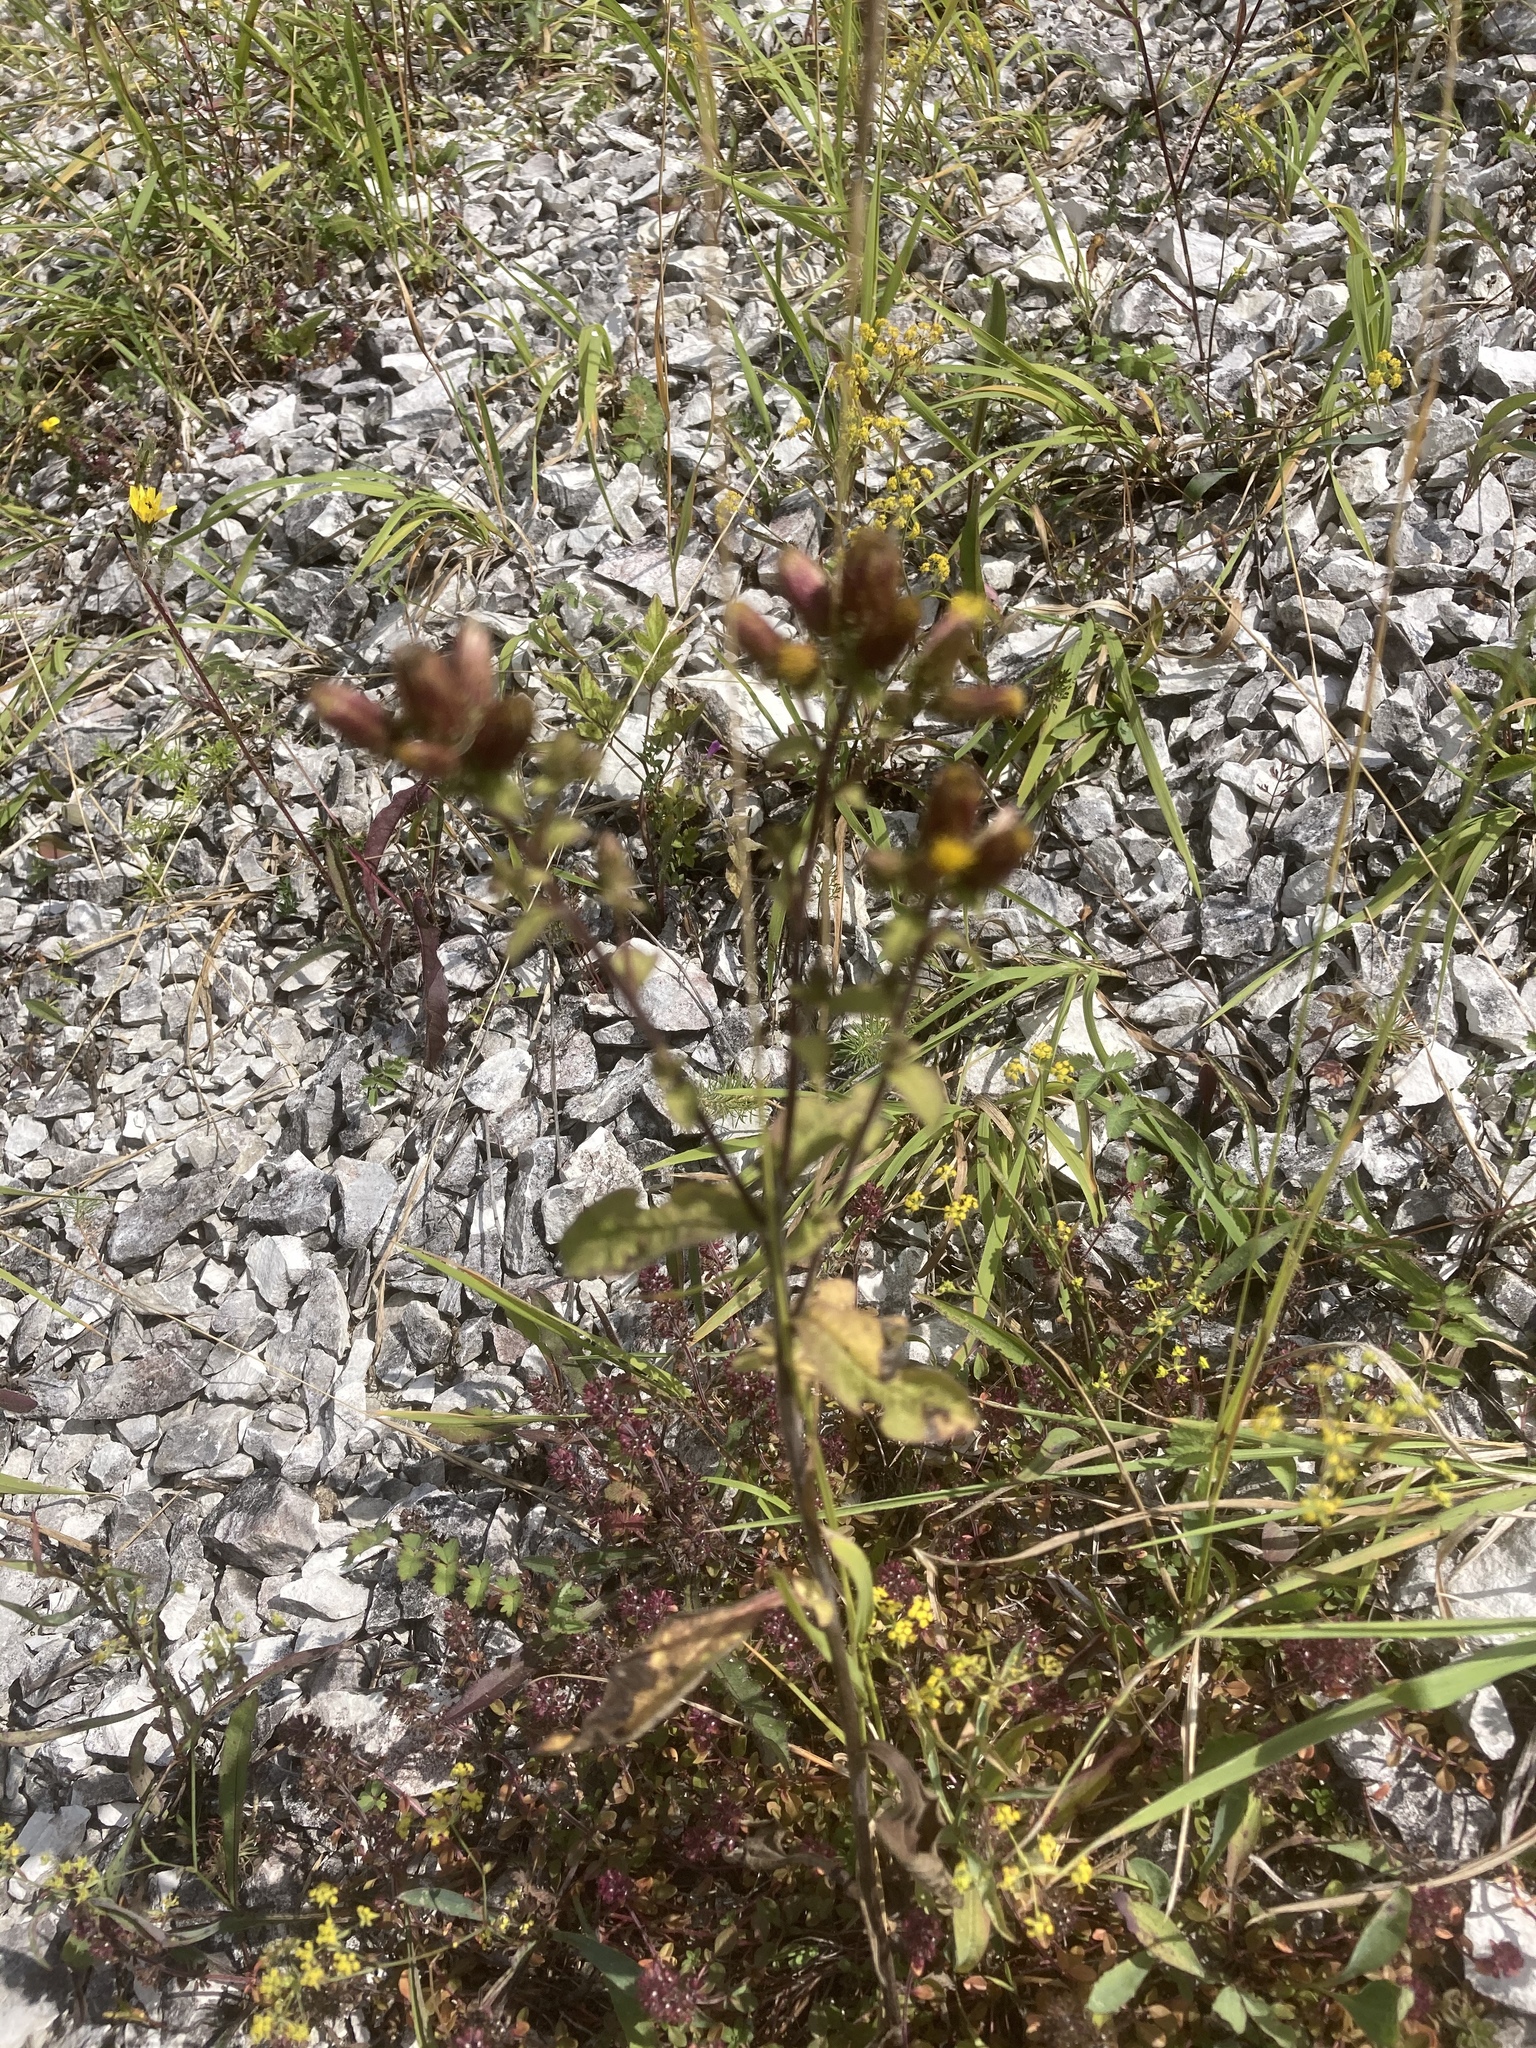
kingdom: Plantae
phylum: Tracheophyta
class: Magnoliopsida
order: Asterales
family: Asteraceae
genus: Pentanema
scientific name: Pentanema squarrosum
